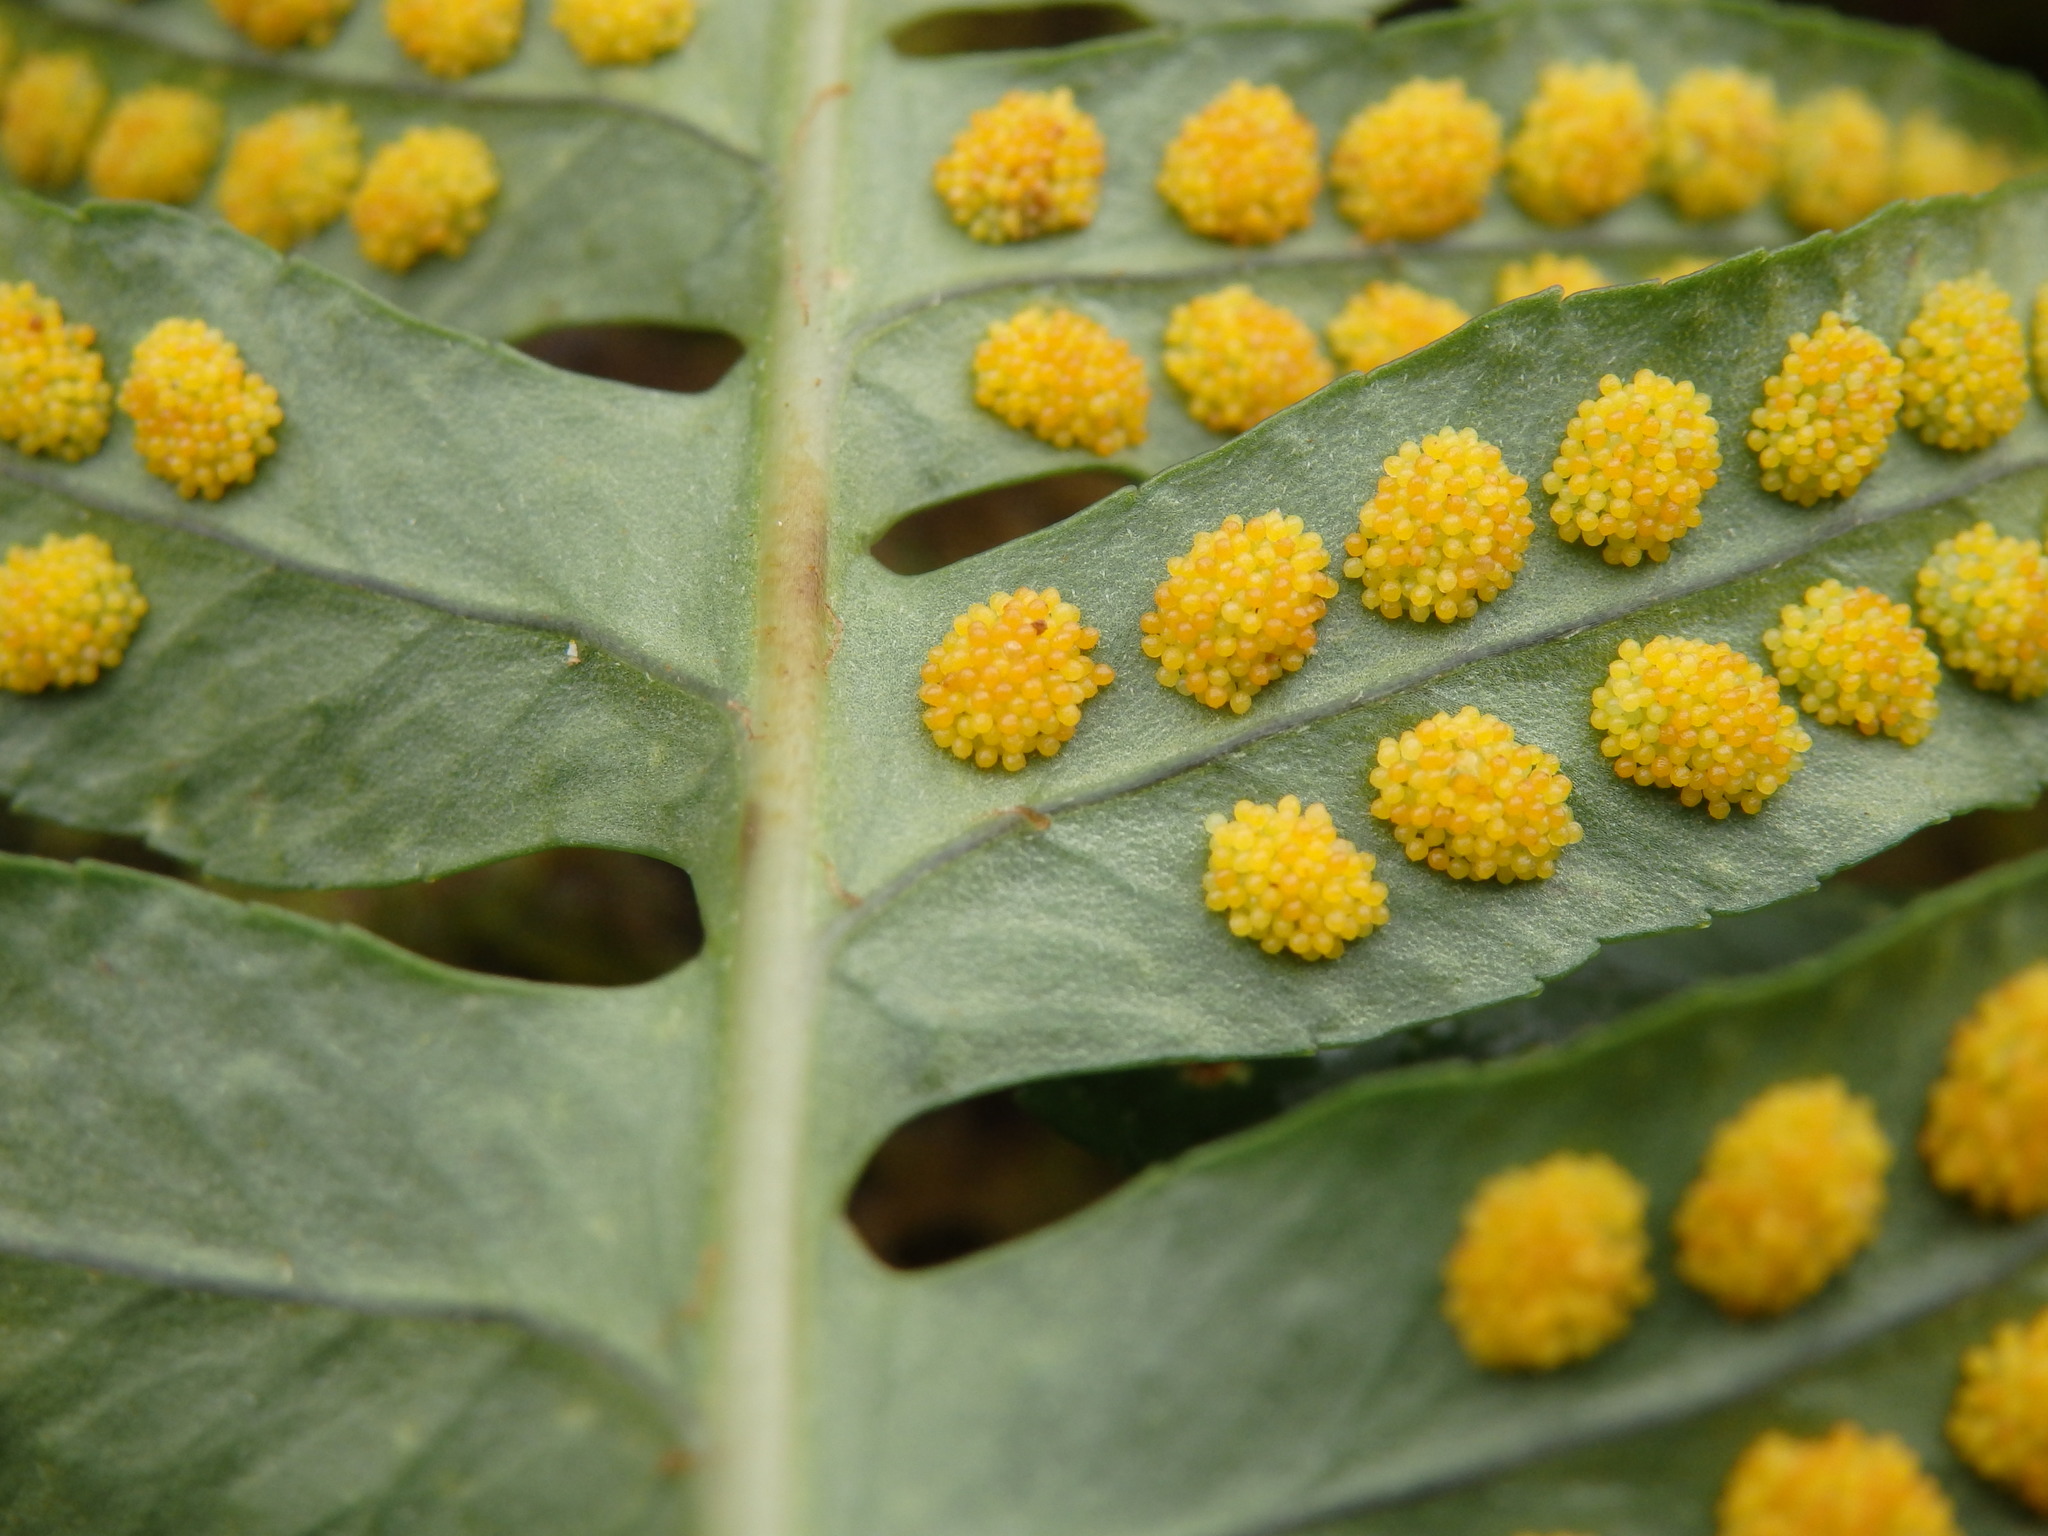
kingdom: Plantae
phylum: Tracheophyta
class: Polypodiopsida
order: Polypodiales
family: Polypodiaceae
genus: Polypodium
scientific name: Polypodium vulgare
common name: Common polypody
